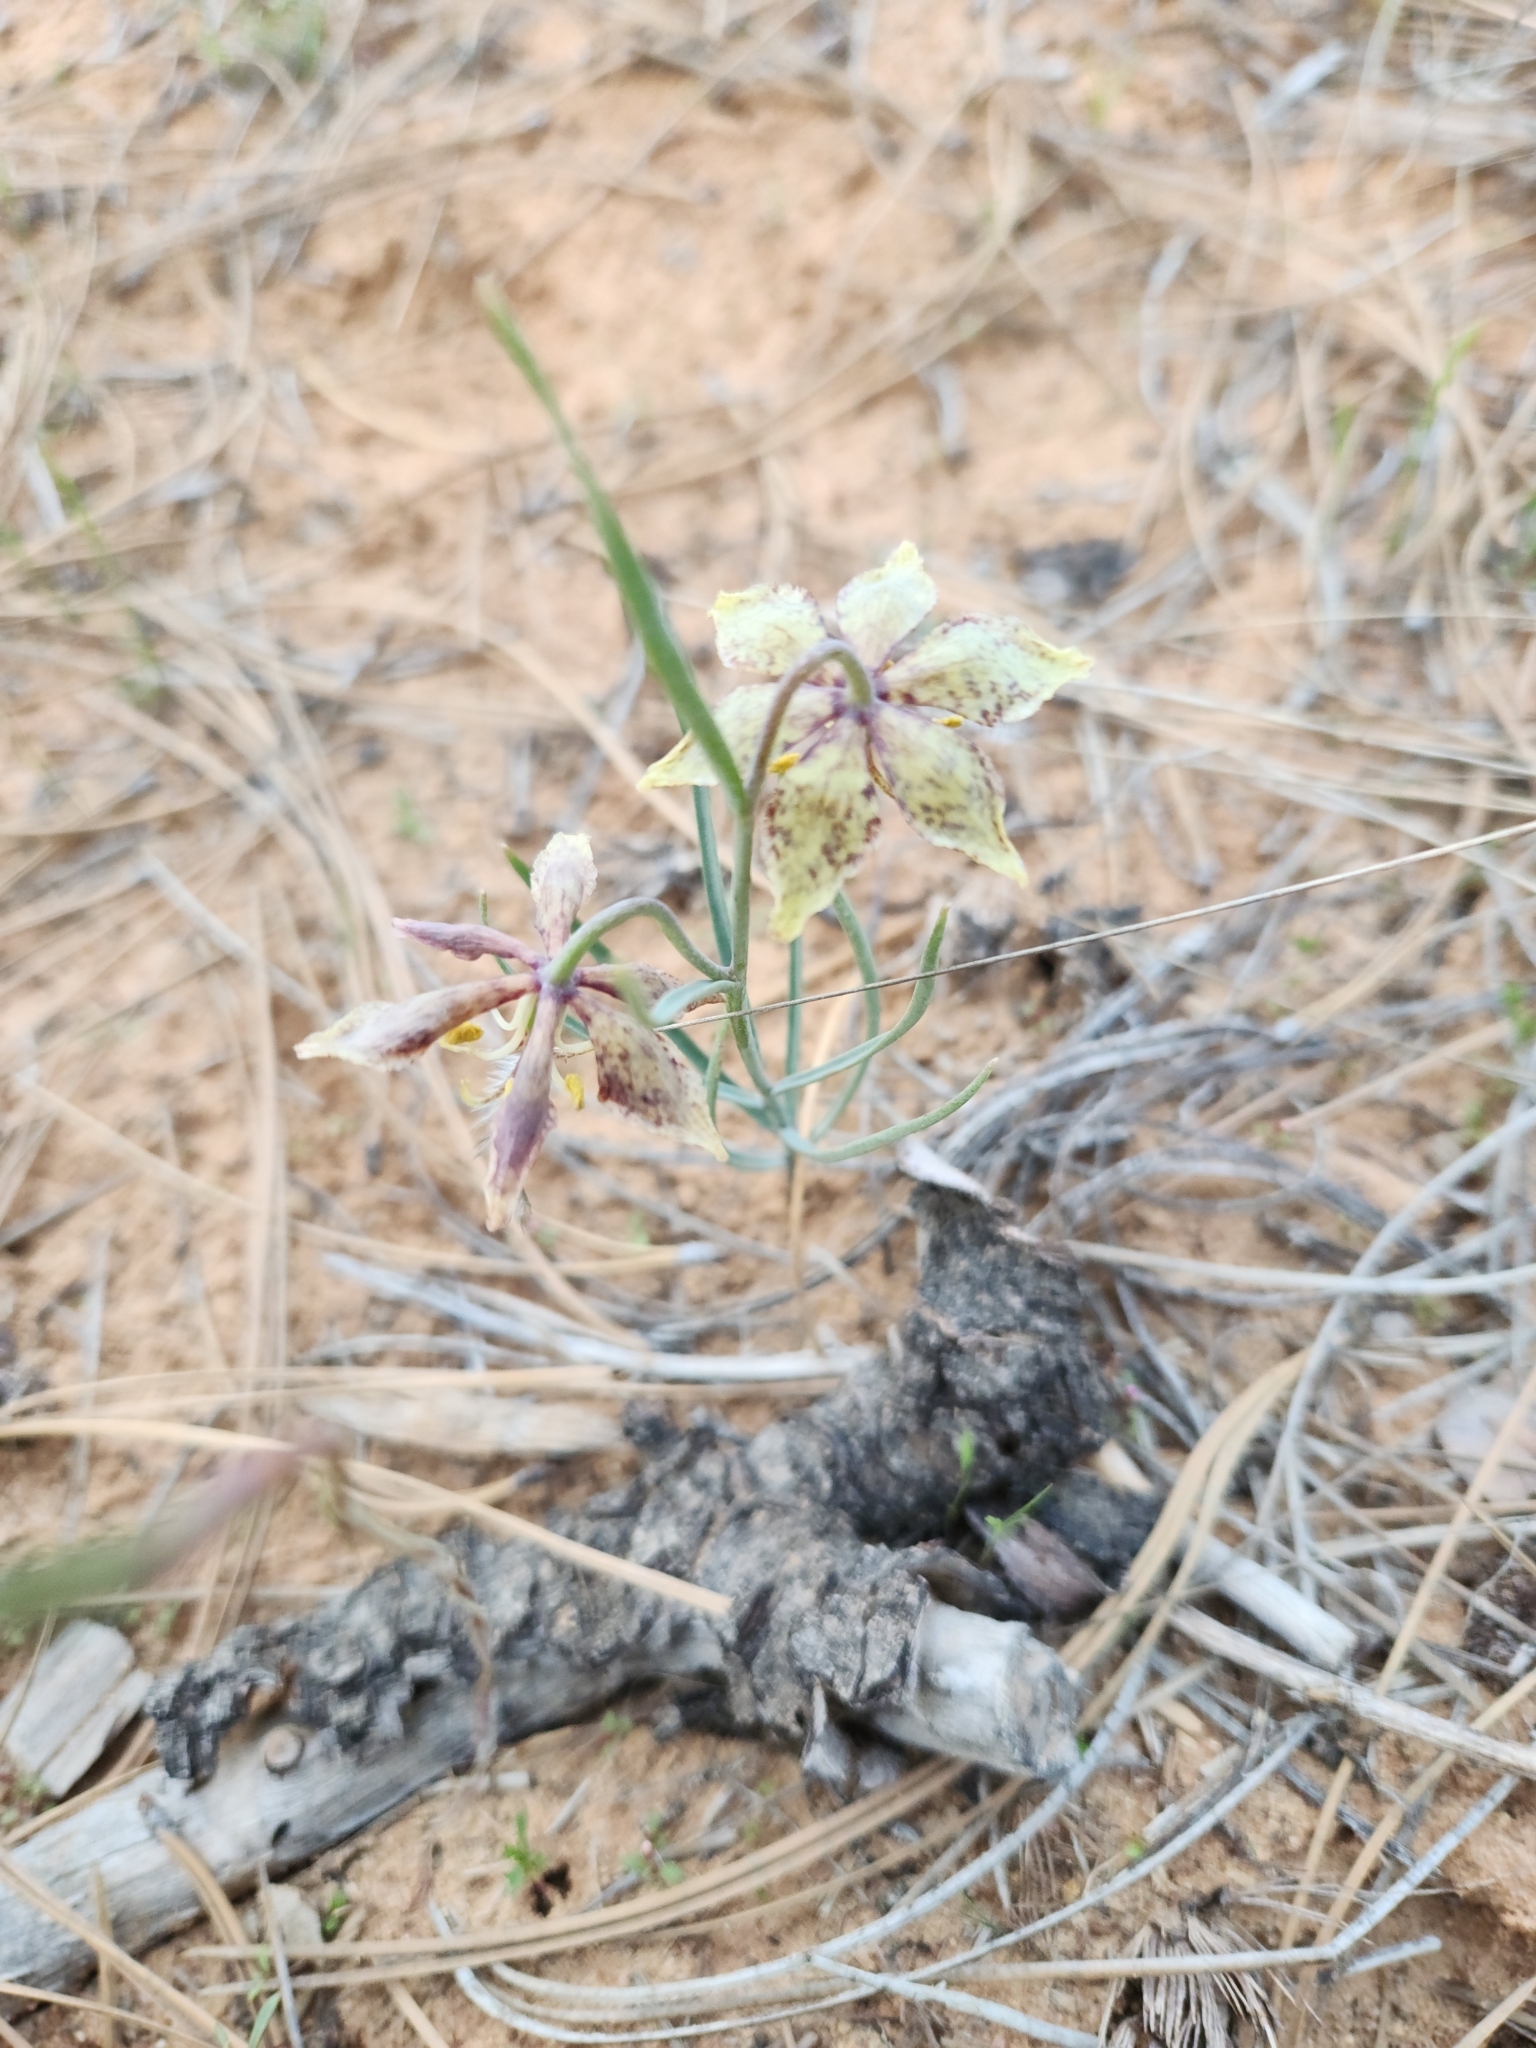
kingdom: Plantae
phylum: Tracheophyta
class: Liliopsida
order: Liliales
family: Liliaceae
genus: Fritillaria
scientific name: Fritillaria atropurpurea
